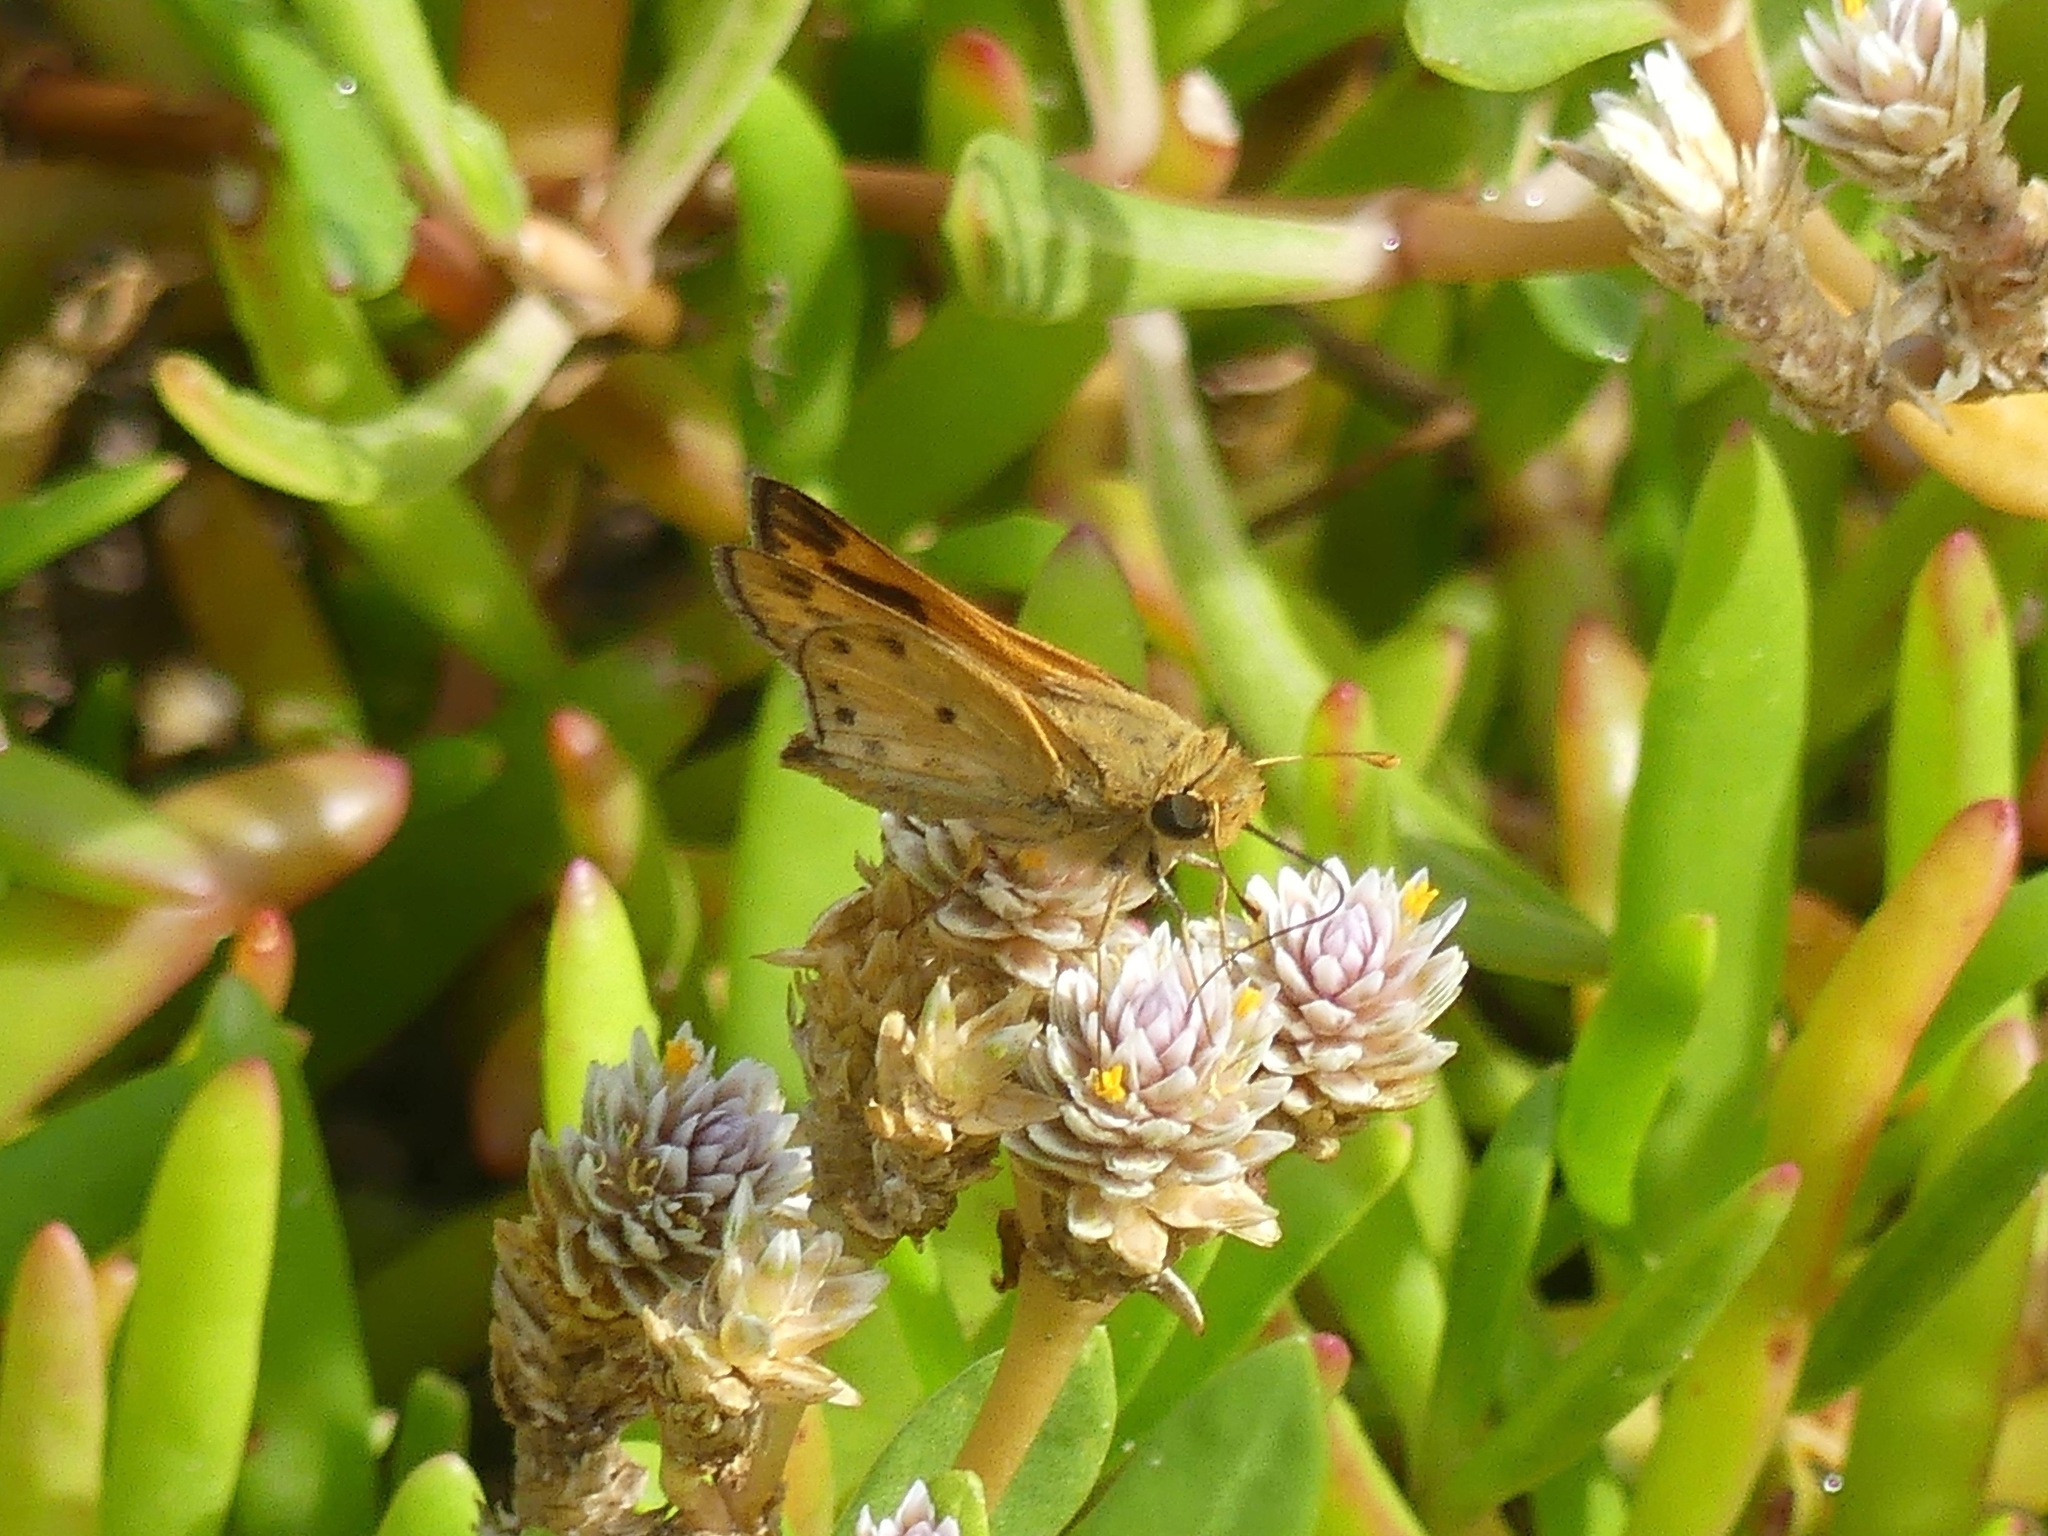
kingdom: Animalia
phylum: Arthropoda
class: Insecta
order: Lepidoptera
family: Hesperiidae
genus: Hylephila
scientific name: Hylephila phyleus
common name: Fiery skipper
